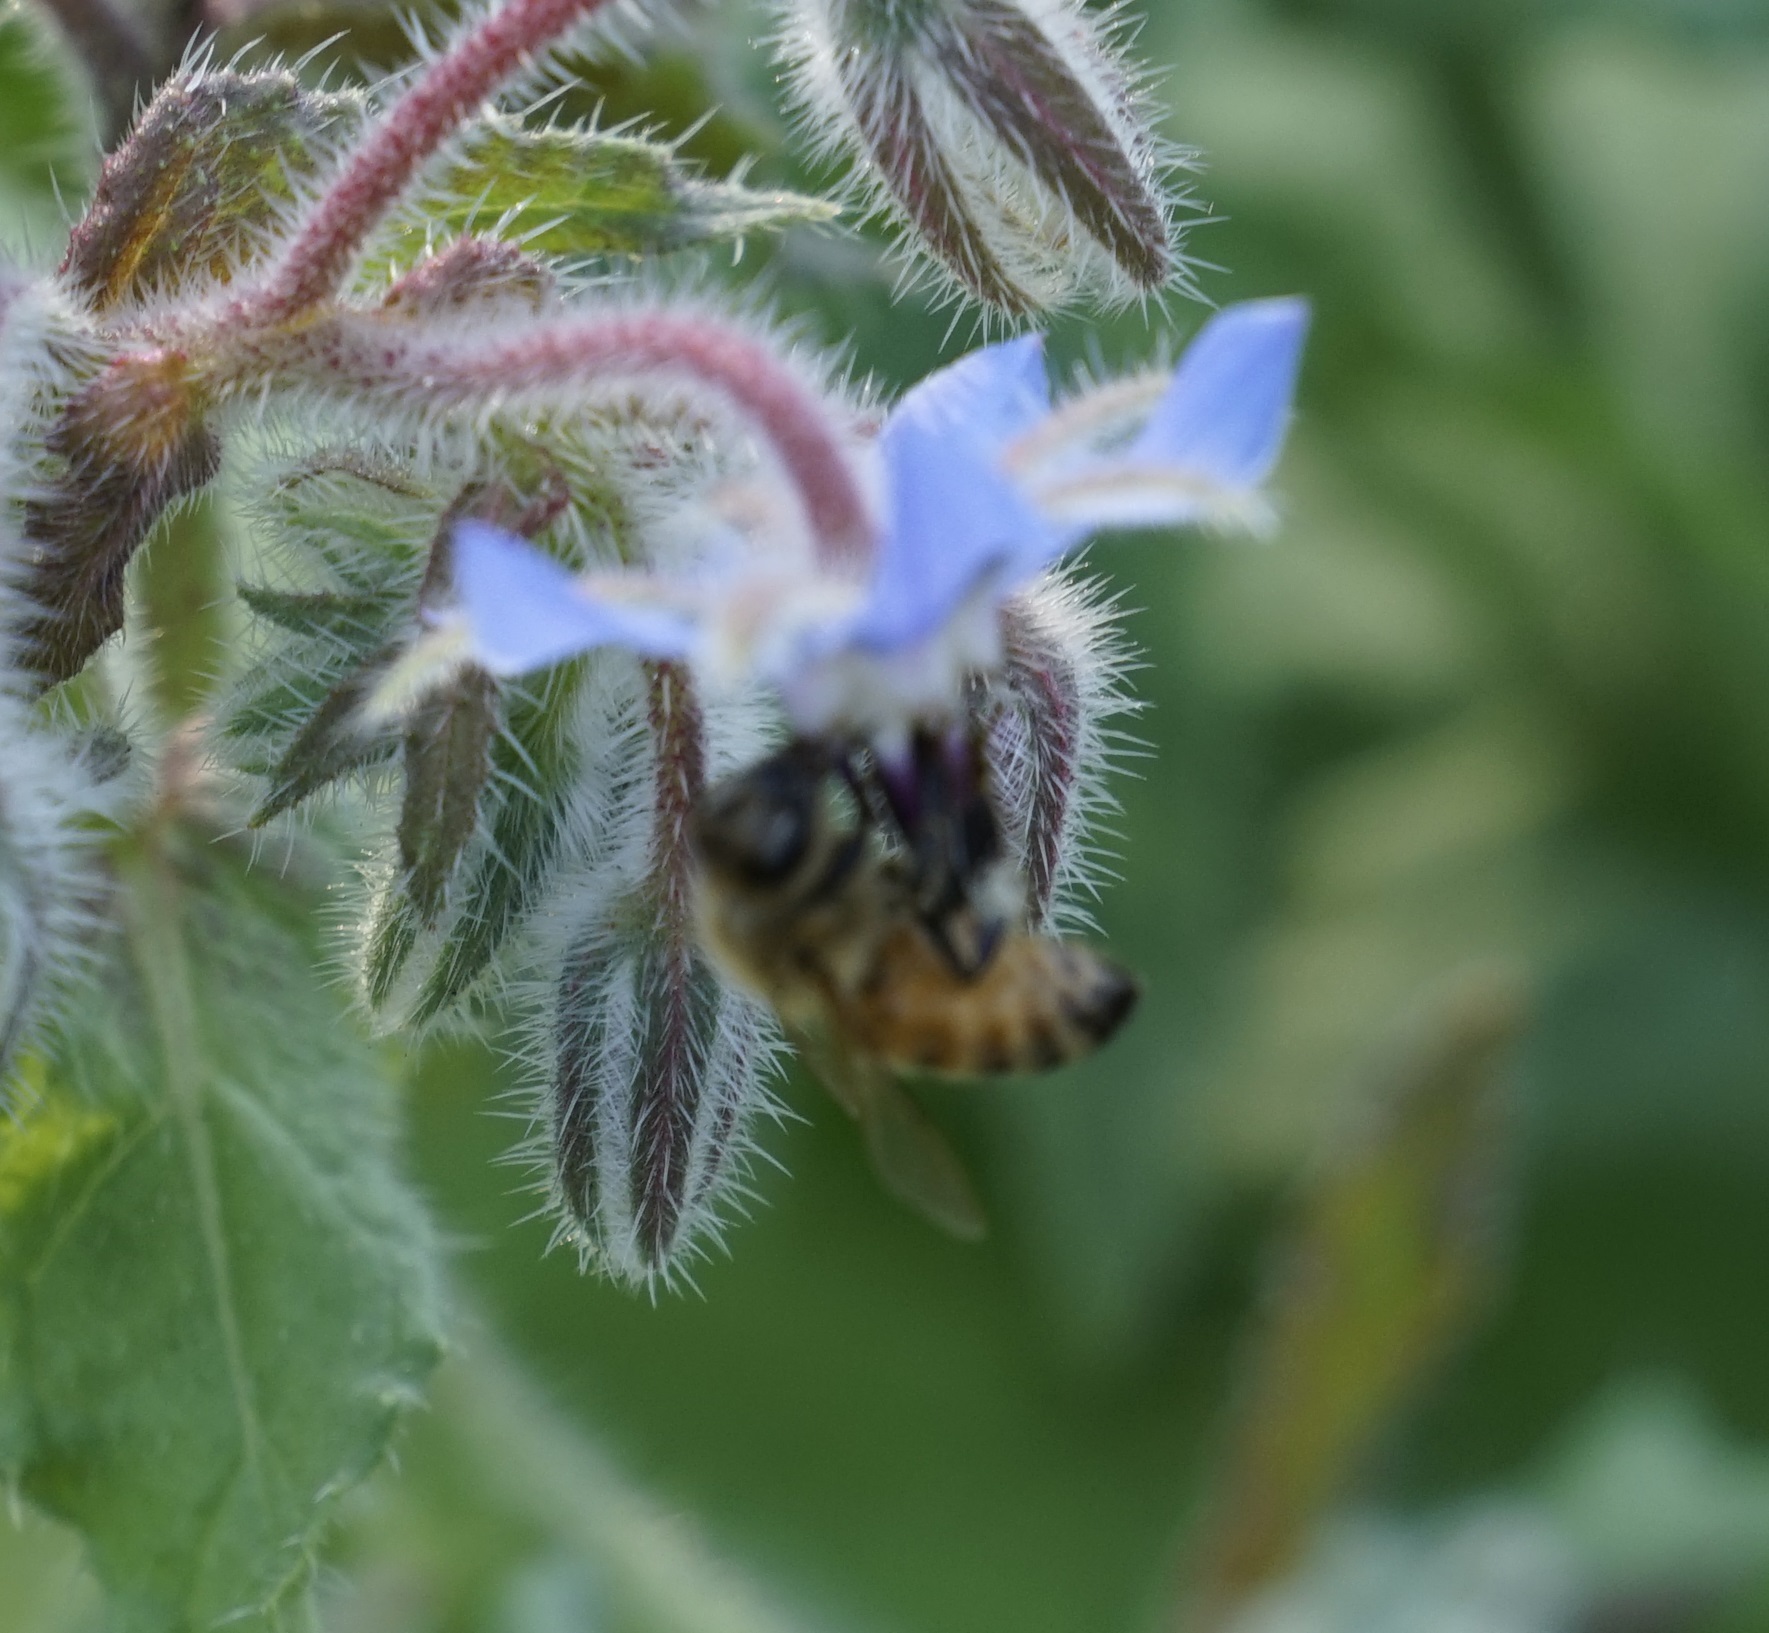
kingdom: Animalia
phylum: Arthropoda
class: Insecta
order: Hymenoptera
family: Apidae
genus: Apis
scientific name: Apis mellifera
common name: Honey bee
